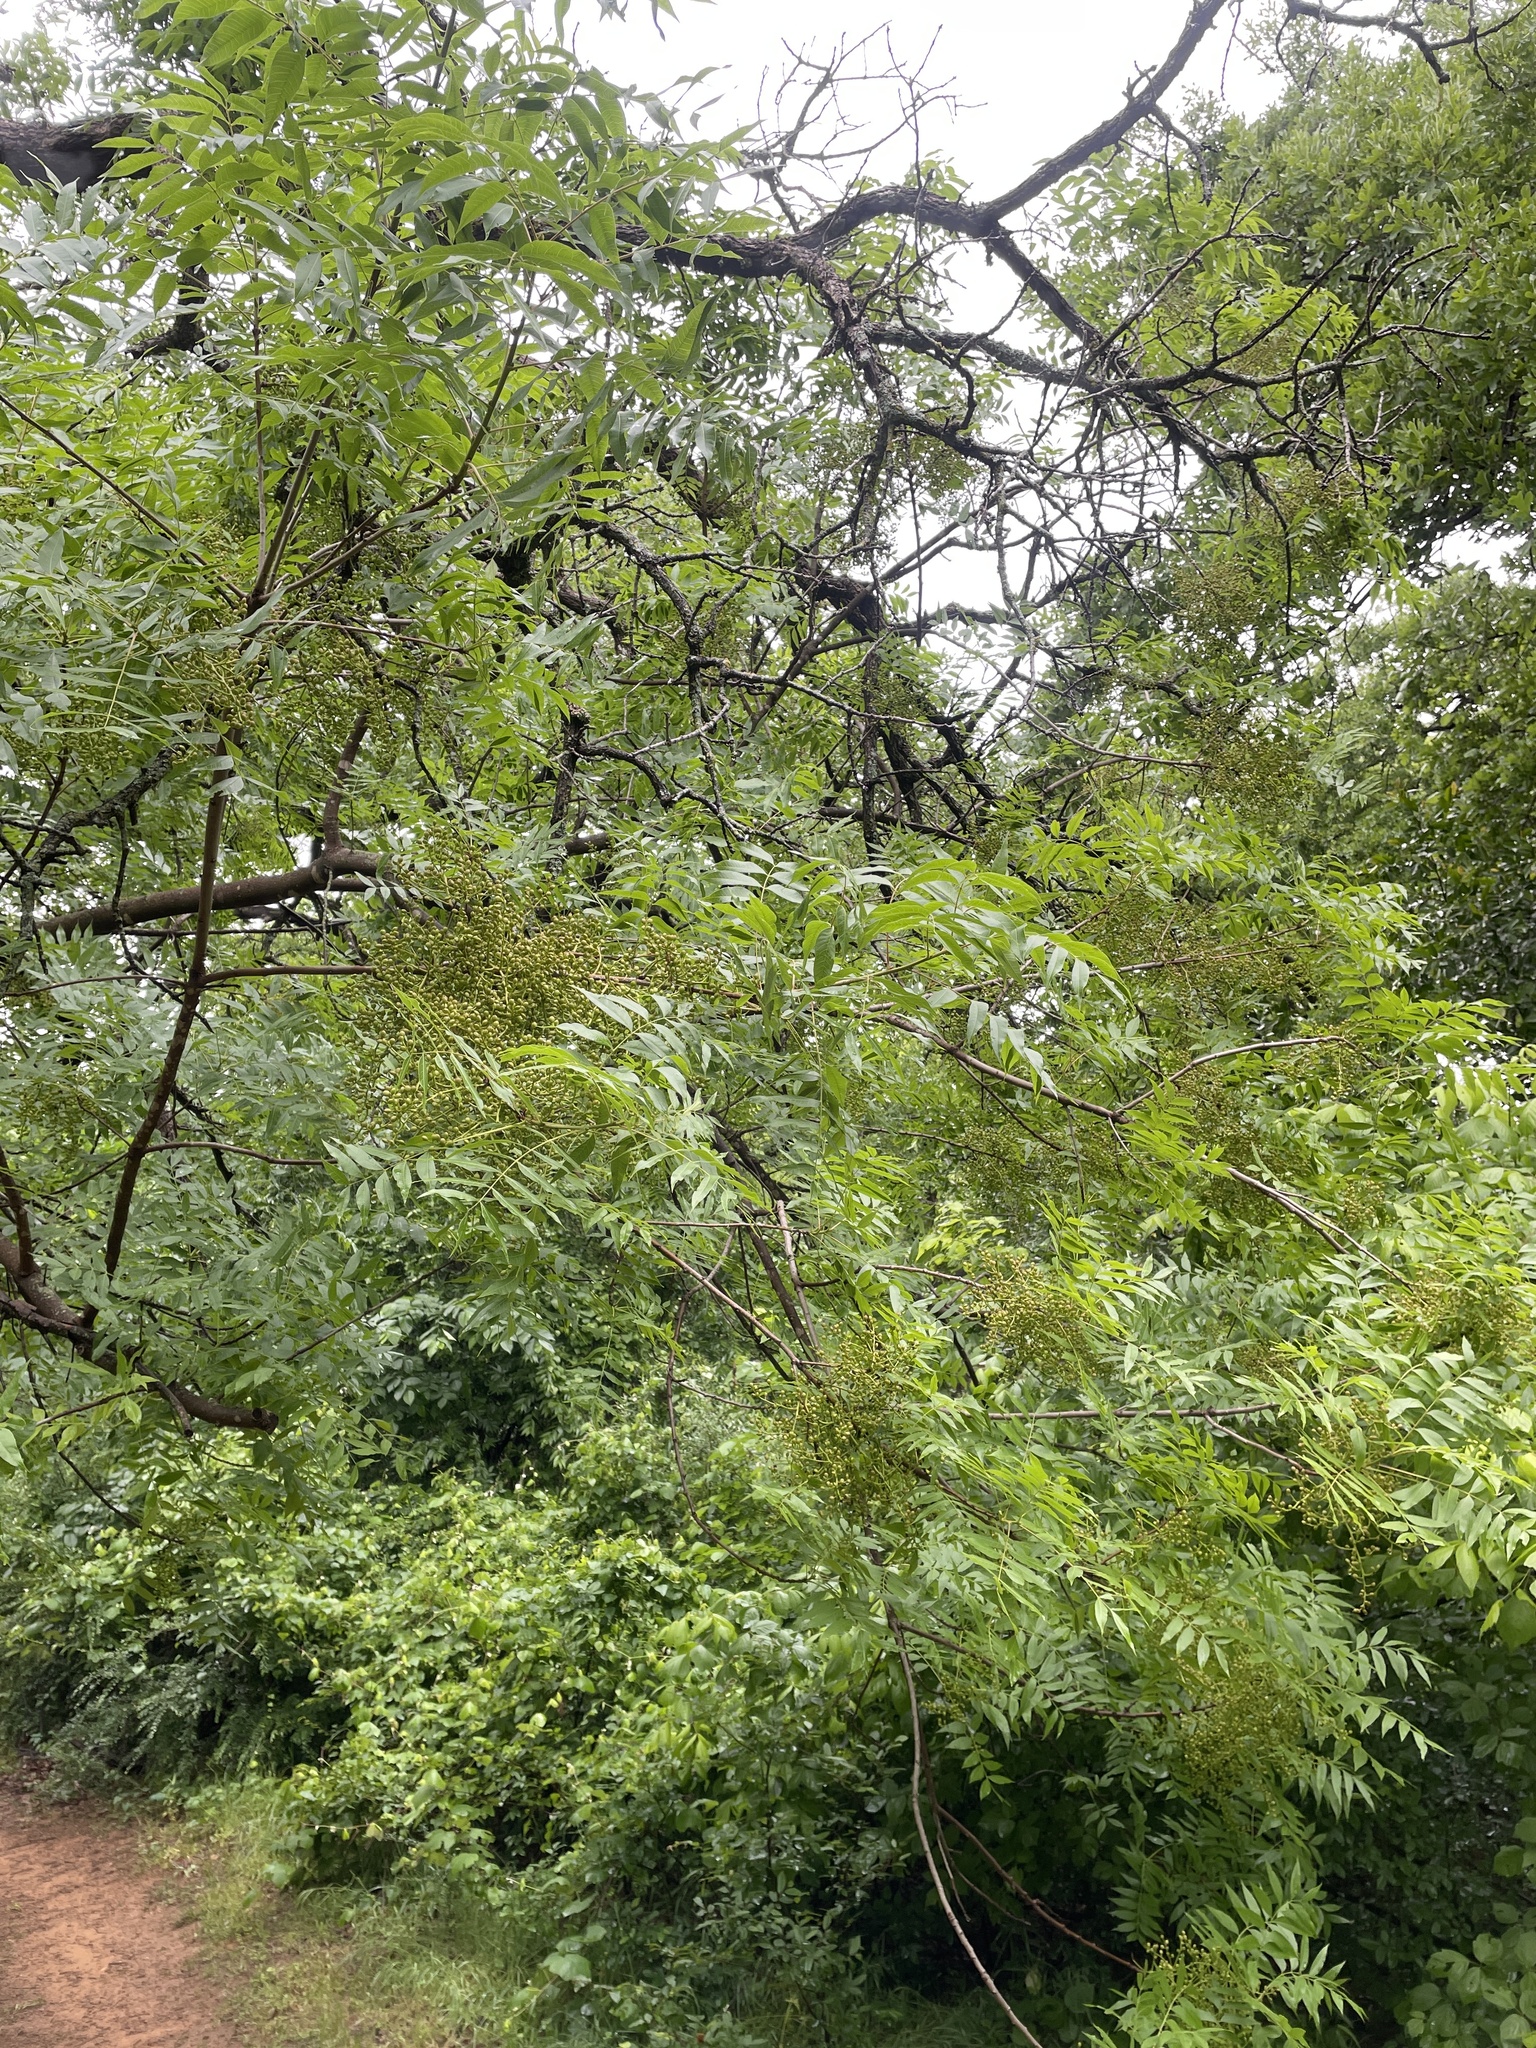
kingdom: Plantae
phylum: Tracheophyta
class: Magnoliopsida
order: Sapindales
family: Anacardiaceae
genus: Pistacia
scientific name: Pistacia chinensis
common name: Chinese pistache
